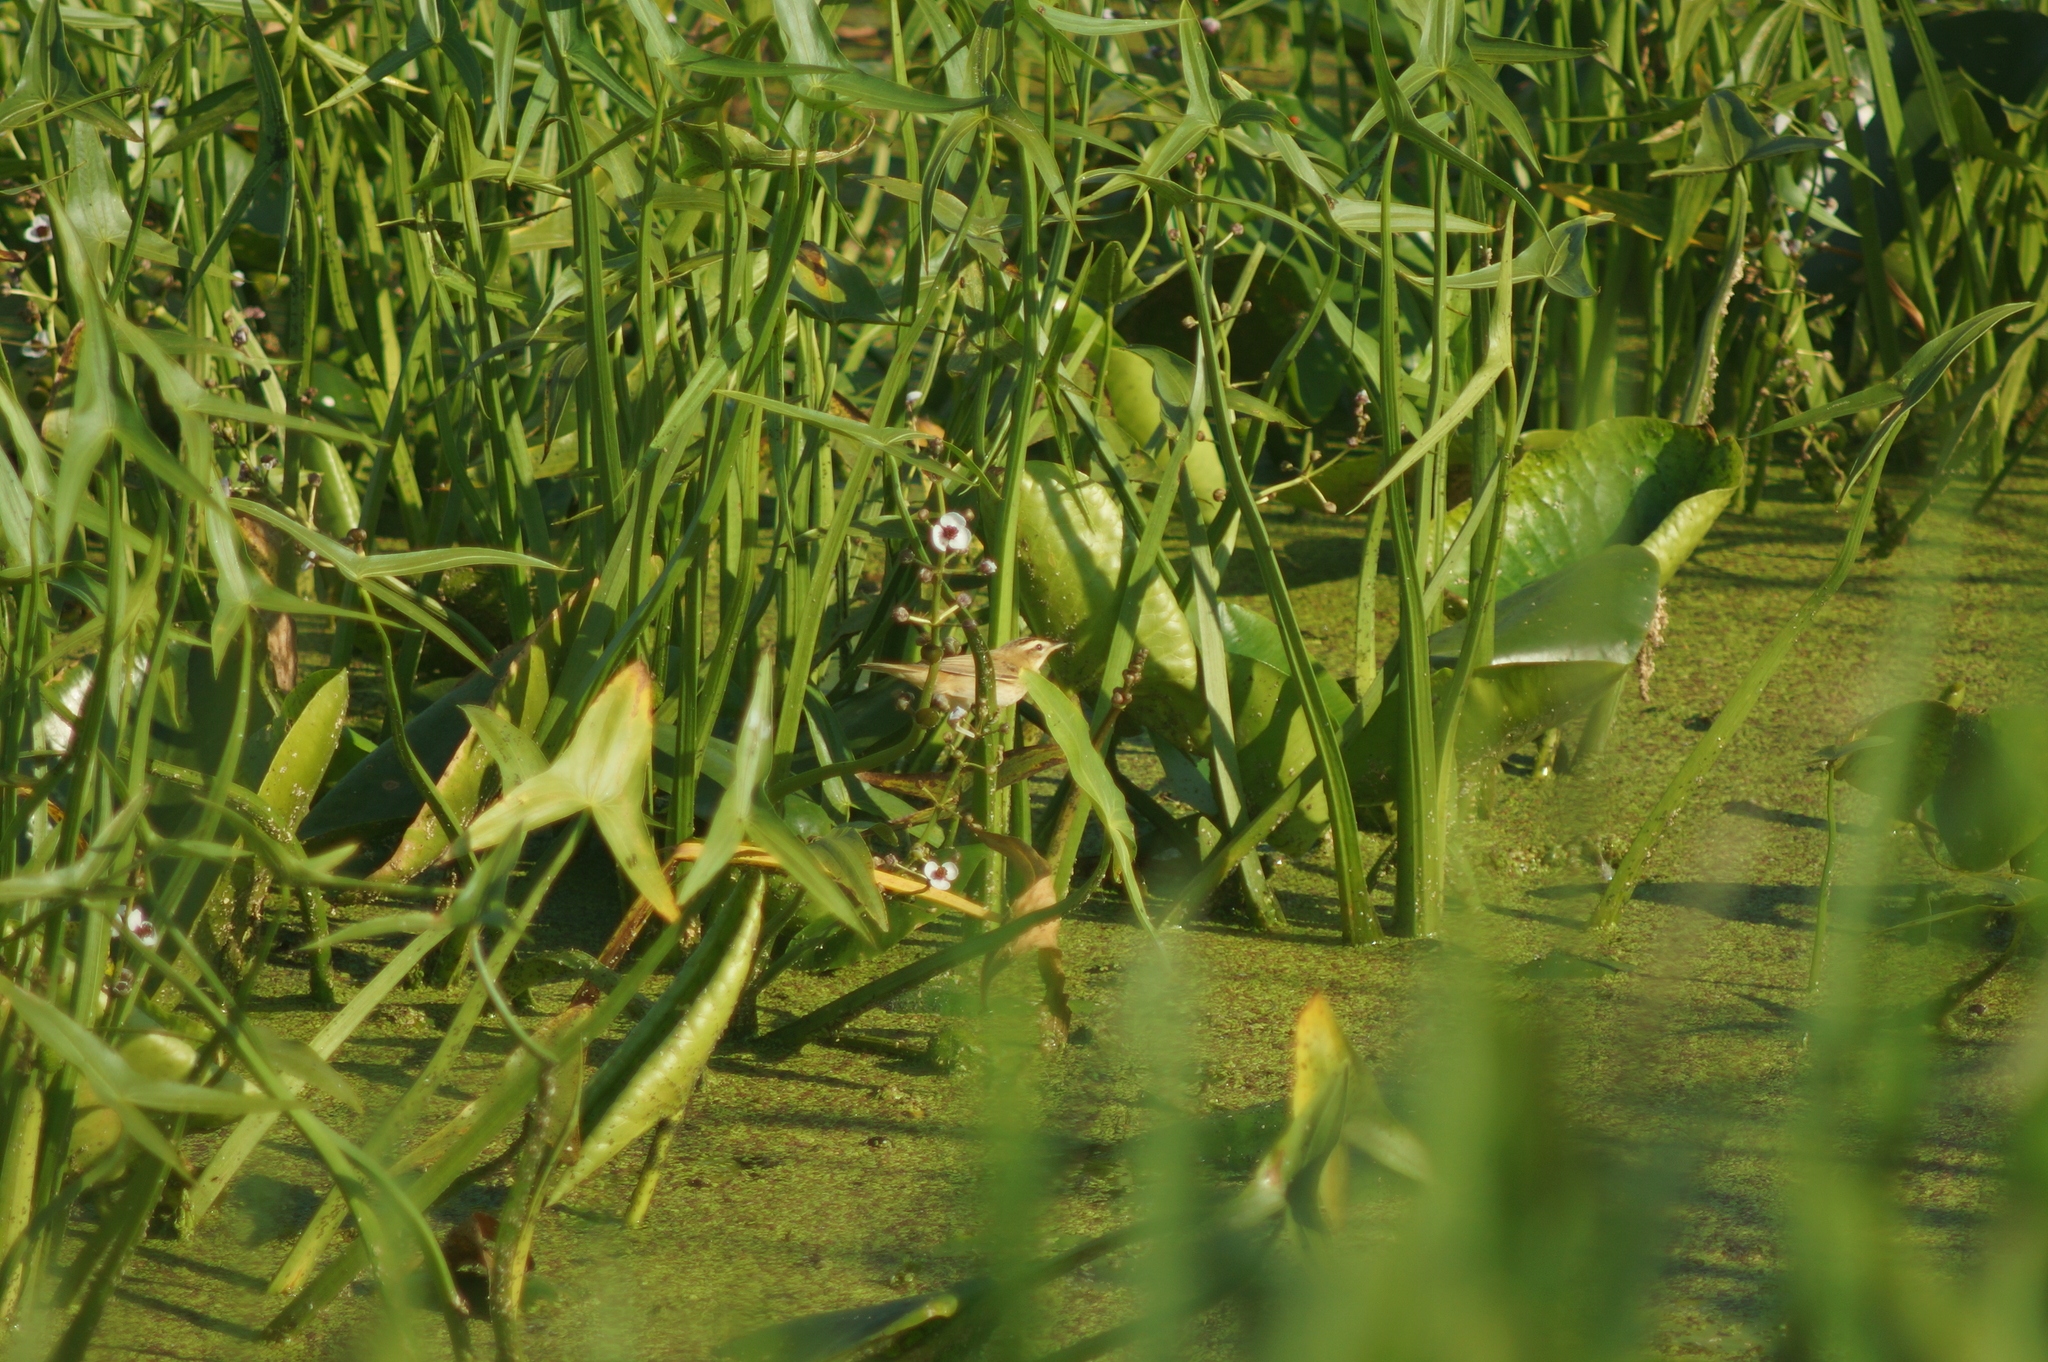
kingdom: Animalia
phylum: Chordata
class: Aves
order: Passeriformes
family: Acrocephalidae
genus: Acrocephalus
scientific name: Acrocephalus schoenobaenus
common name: Sedge warbler
